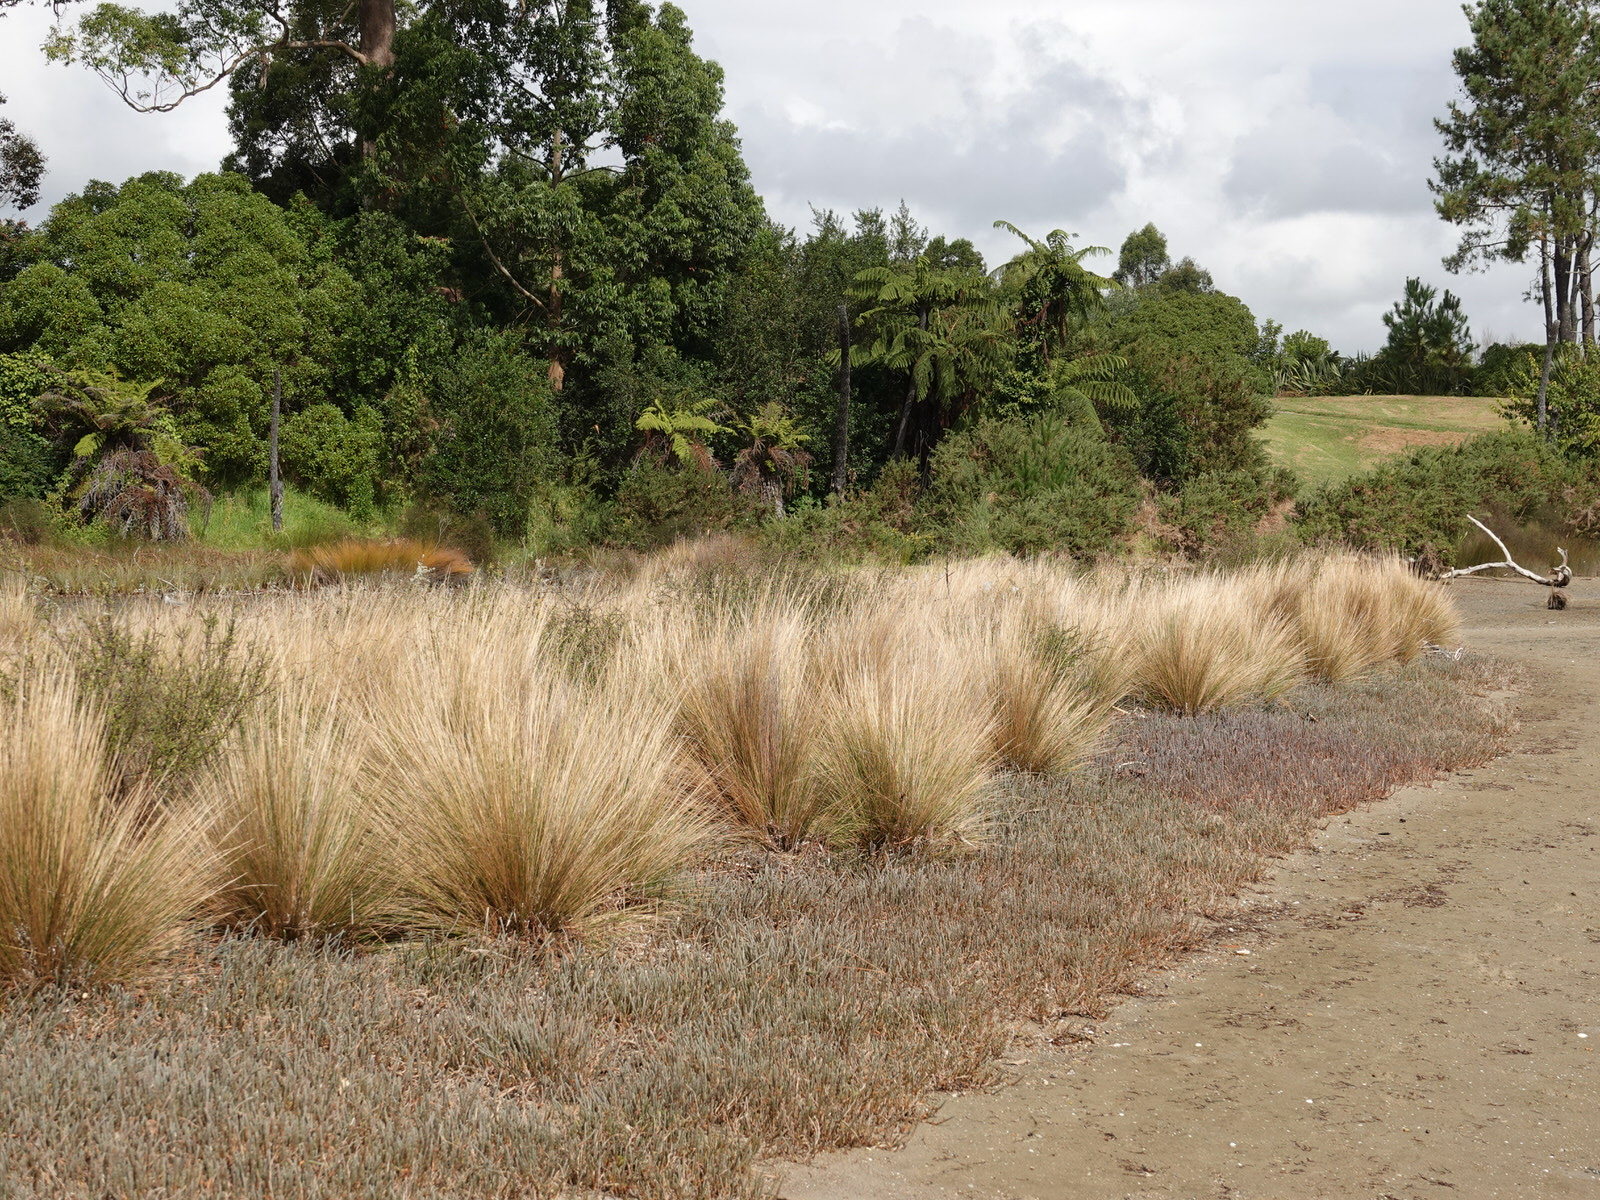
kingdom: Plantae
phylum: Tracheophyta
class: Liliopsida
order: Poales
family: Poaceae
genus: Austrostipa
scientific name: Austrostipa stipoides
